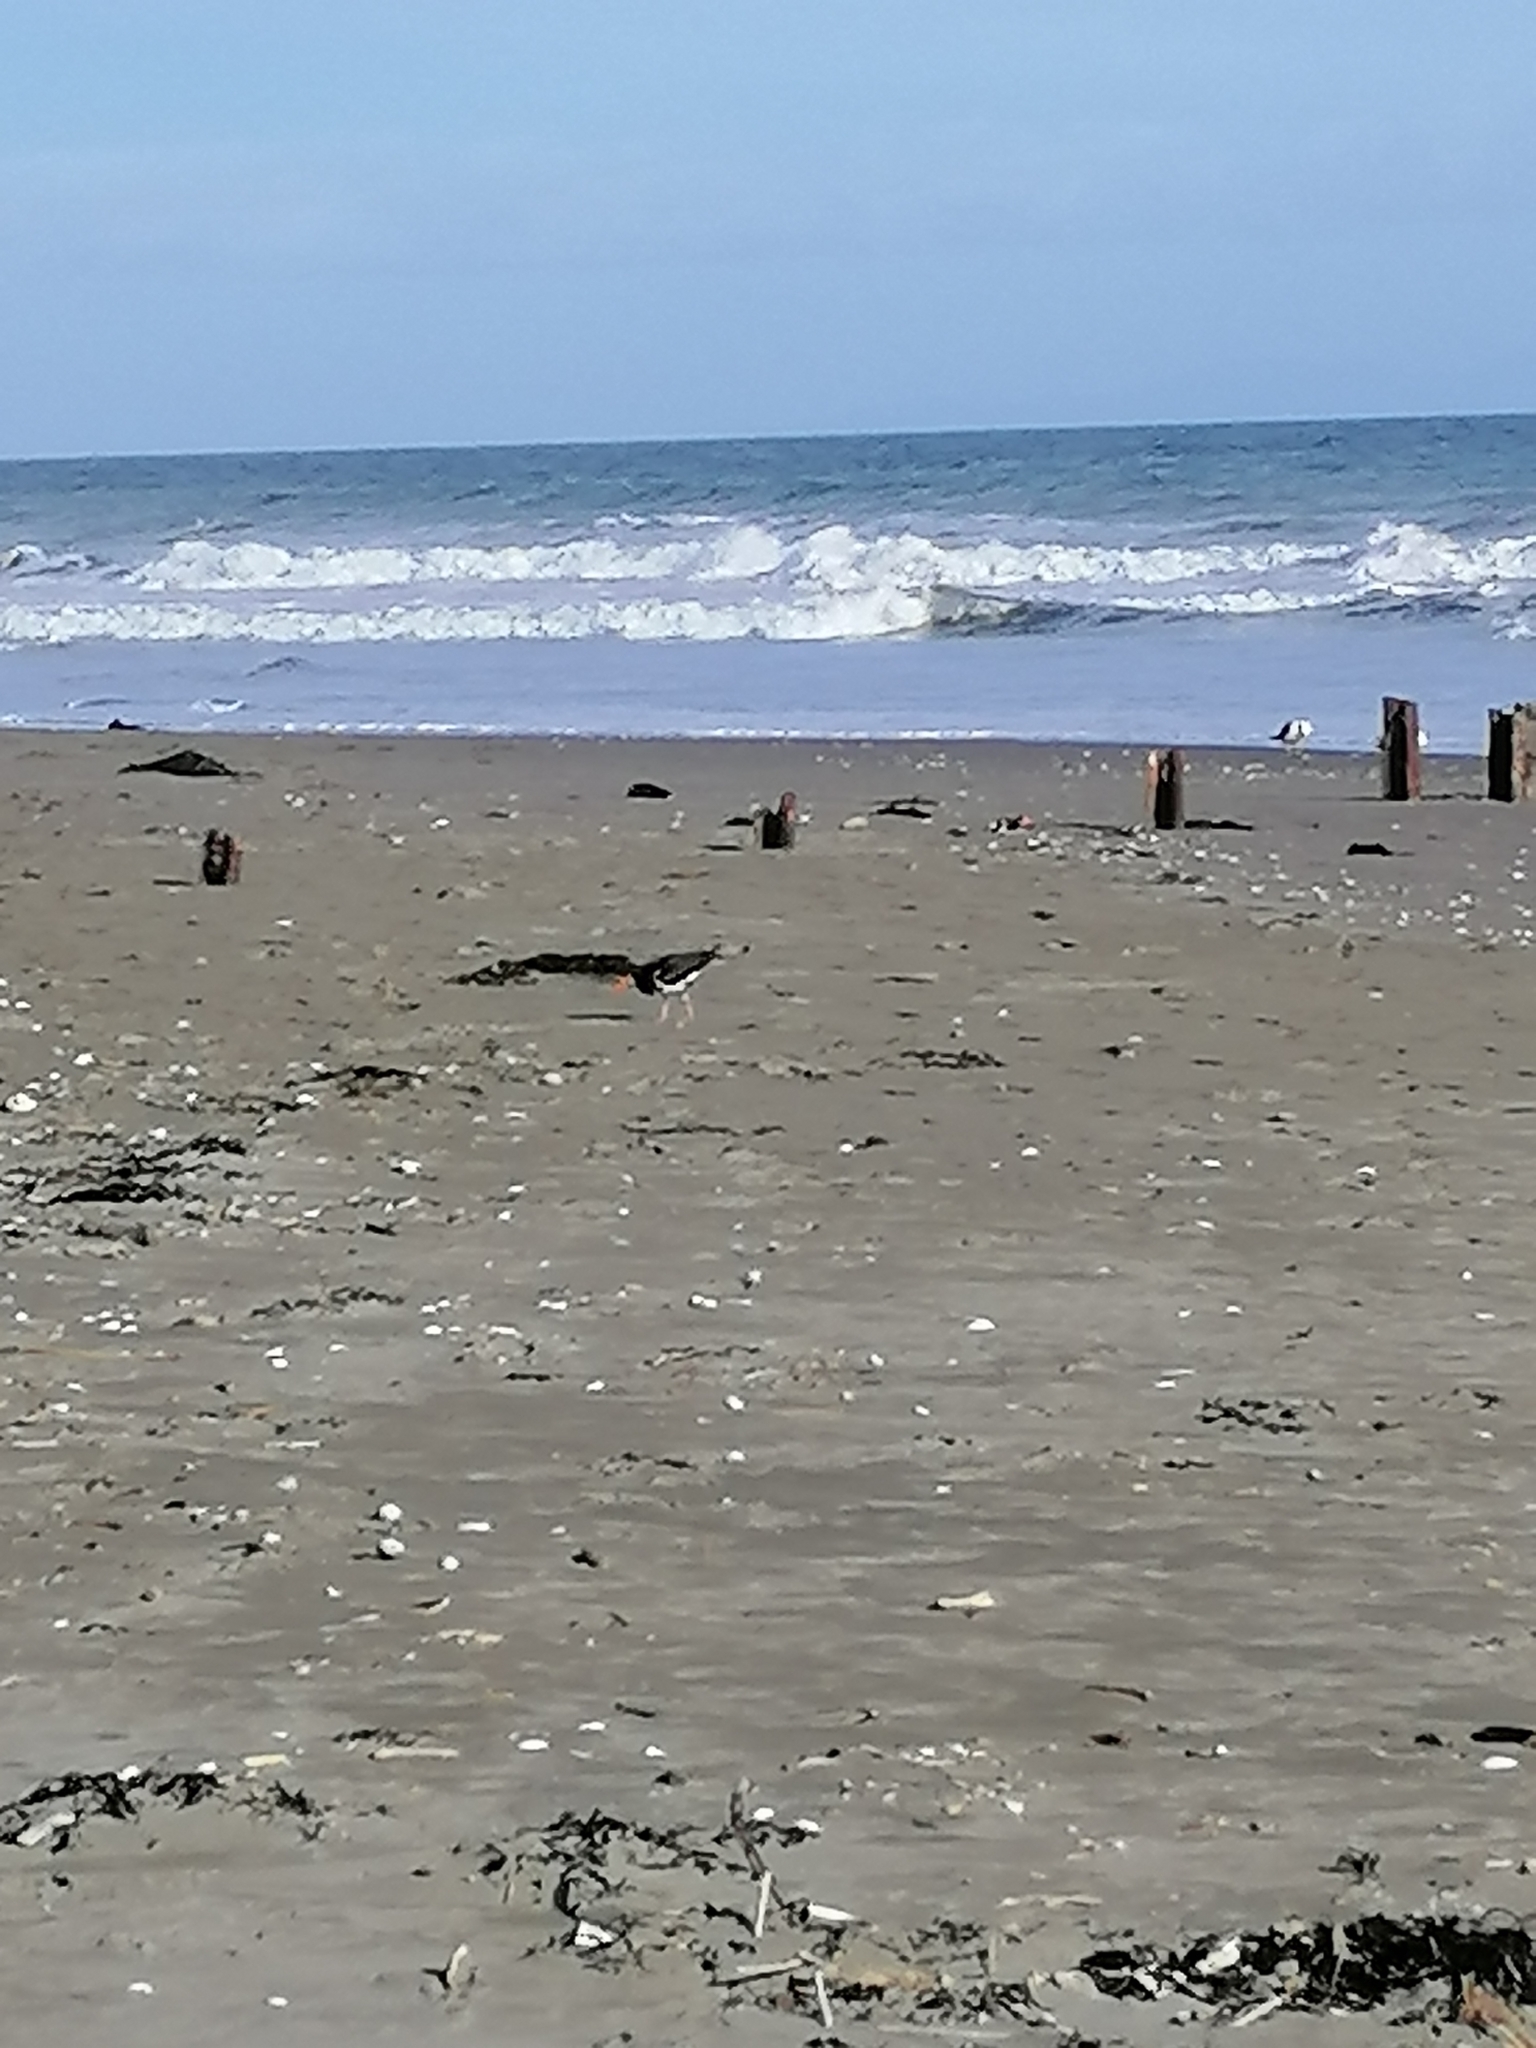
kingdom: Animalia
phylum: Chordata
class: Aves
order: Charadriiformes
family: Haematopodidae
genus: Haematopus
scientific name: Haematopus finschi
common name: South island oystercatcher
